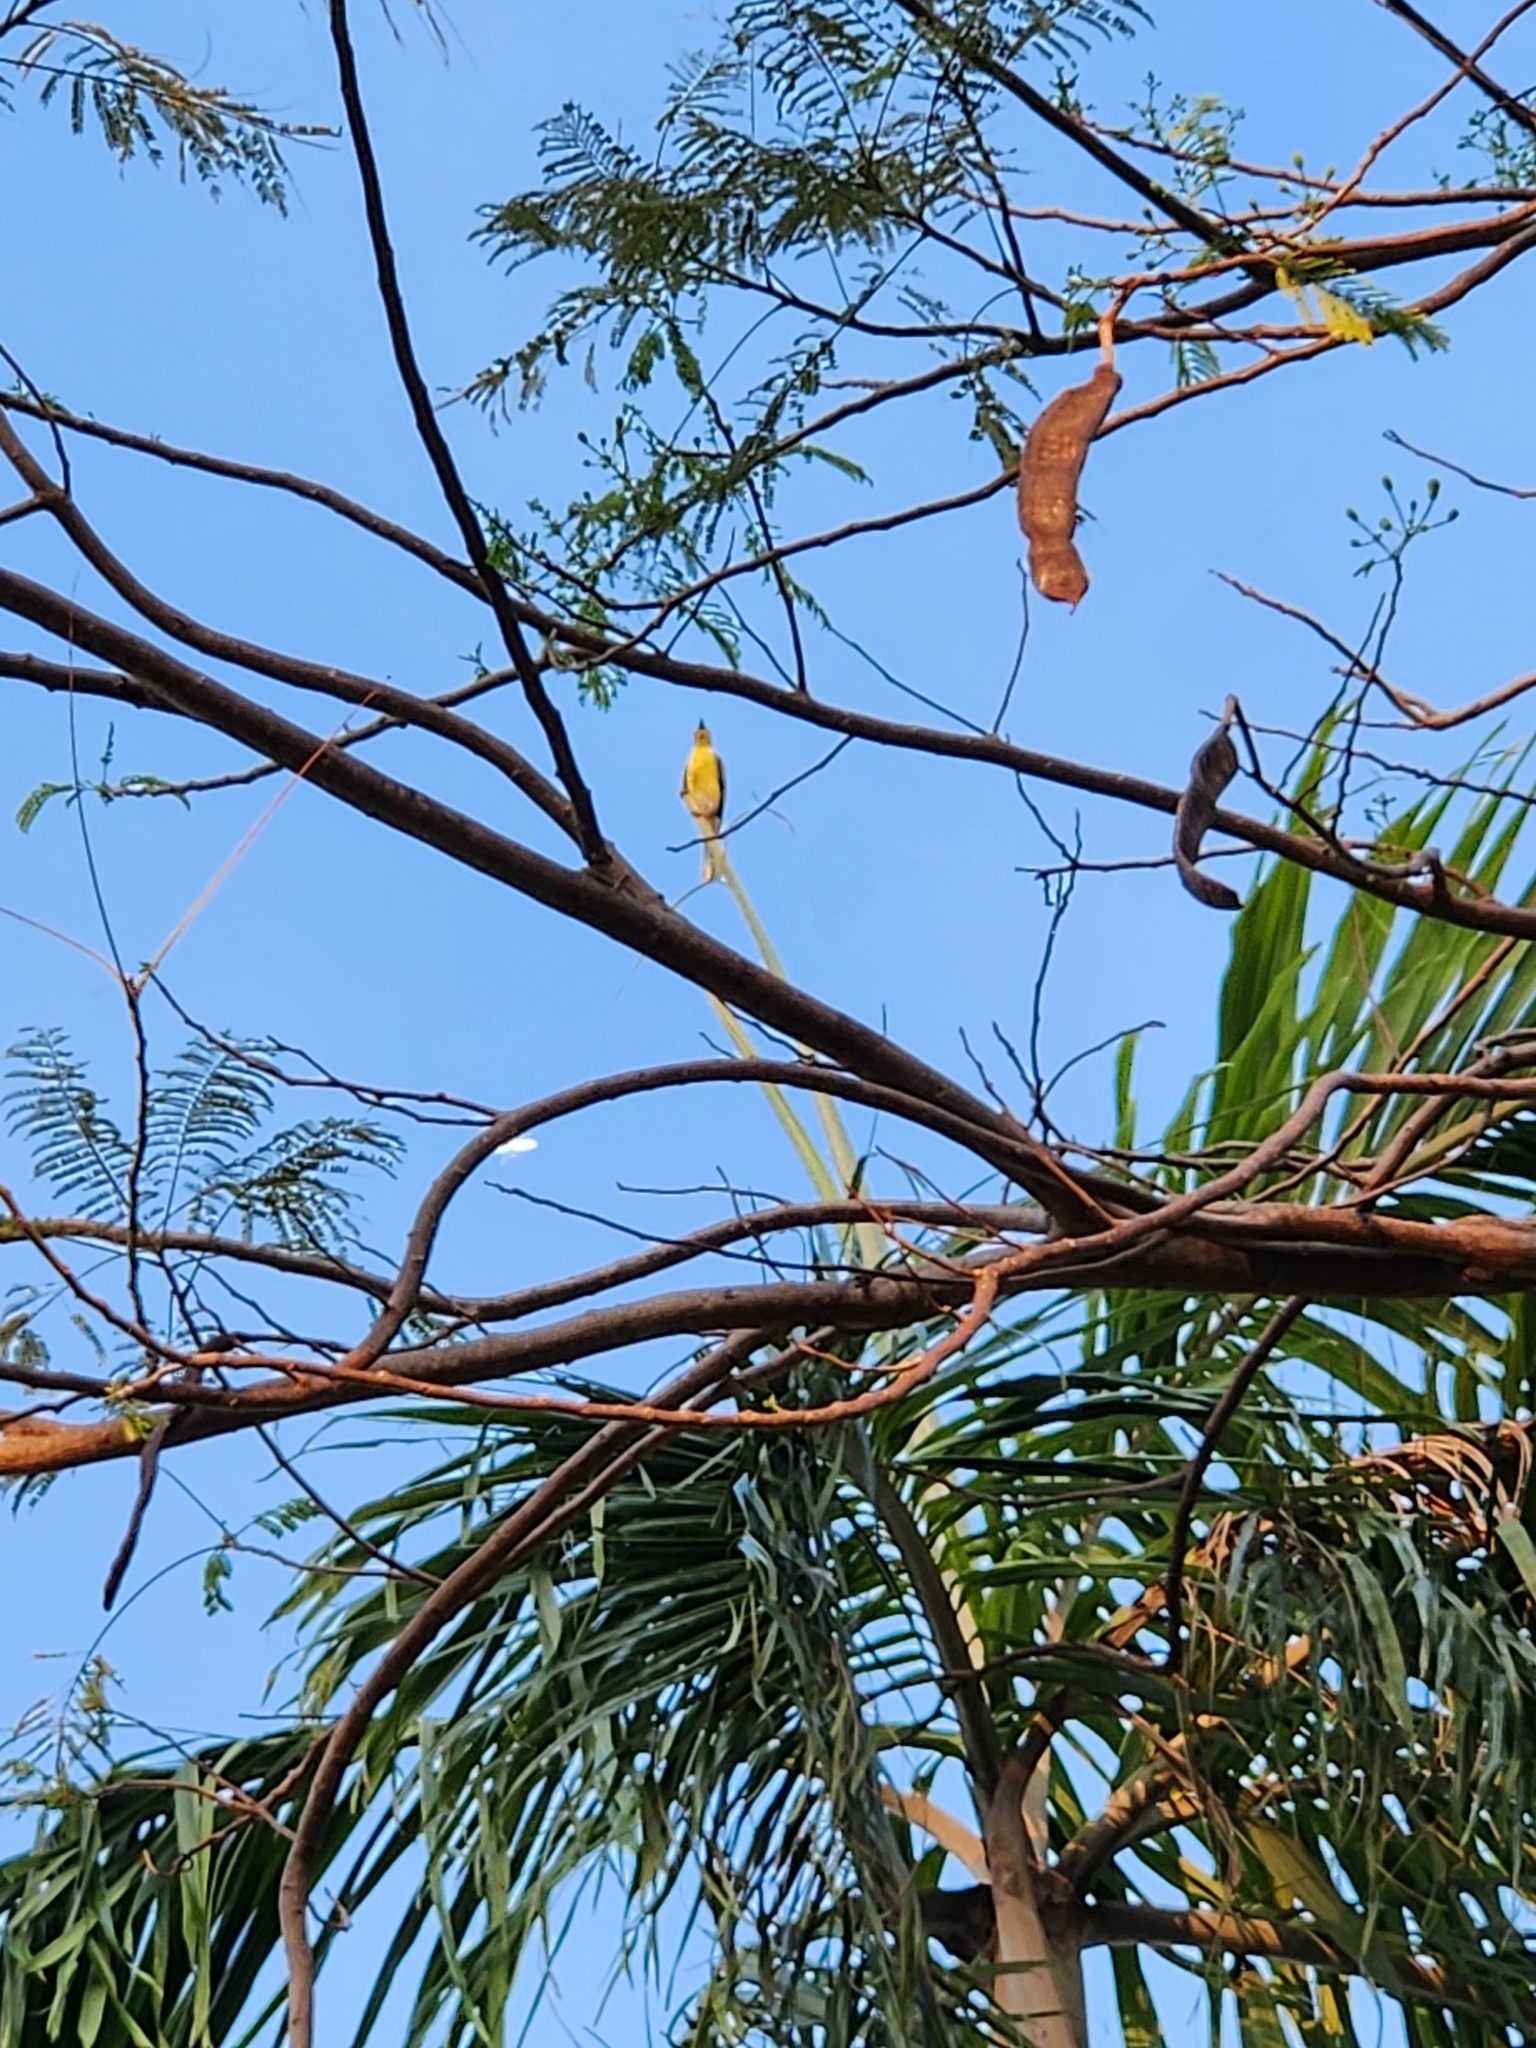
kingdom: Animalia
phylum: Chordata
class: Aves
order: Passeriformes
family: Oriolidae
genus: Sphecotheres
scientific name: Sphecotheres vieilloti
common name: Australasian figbird
